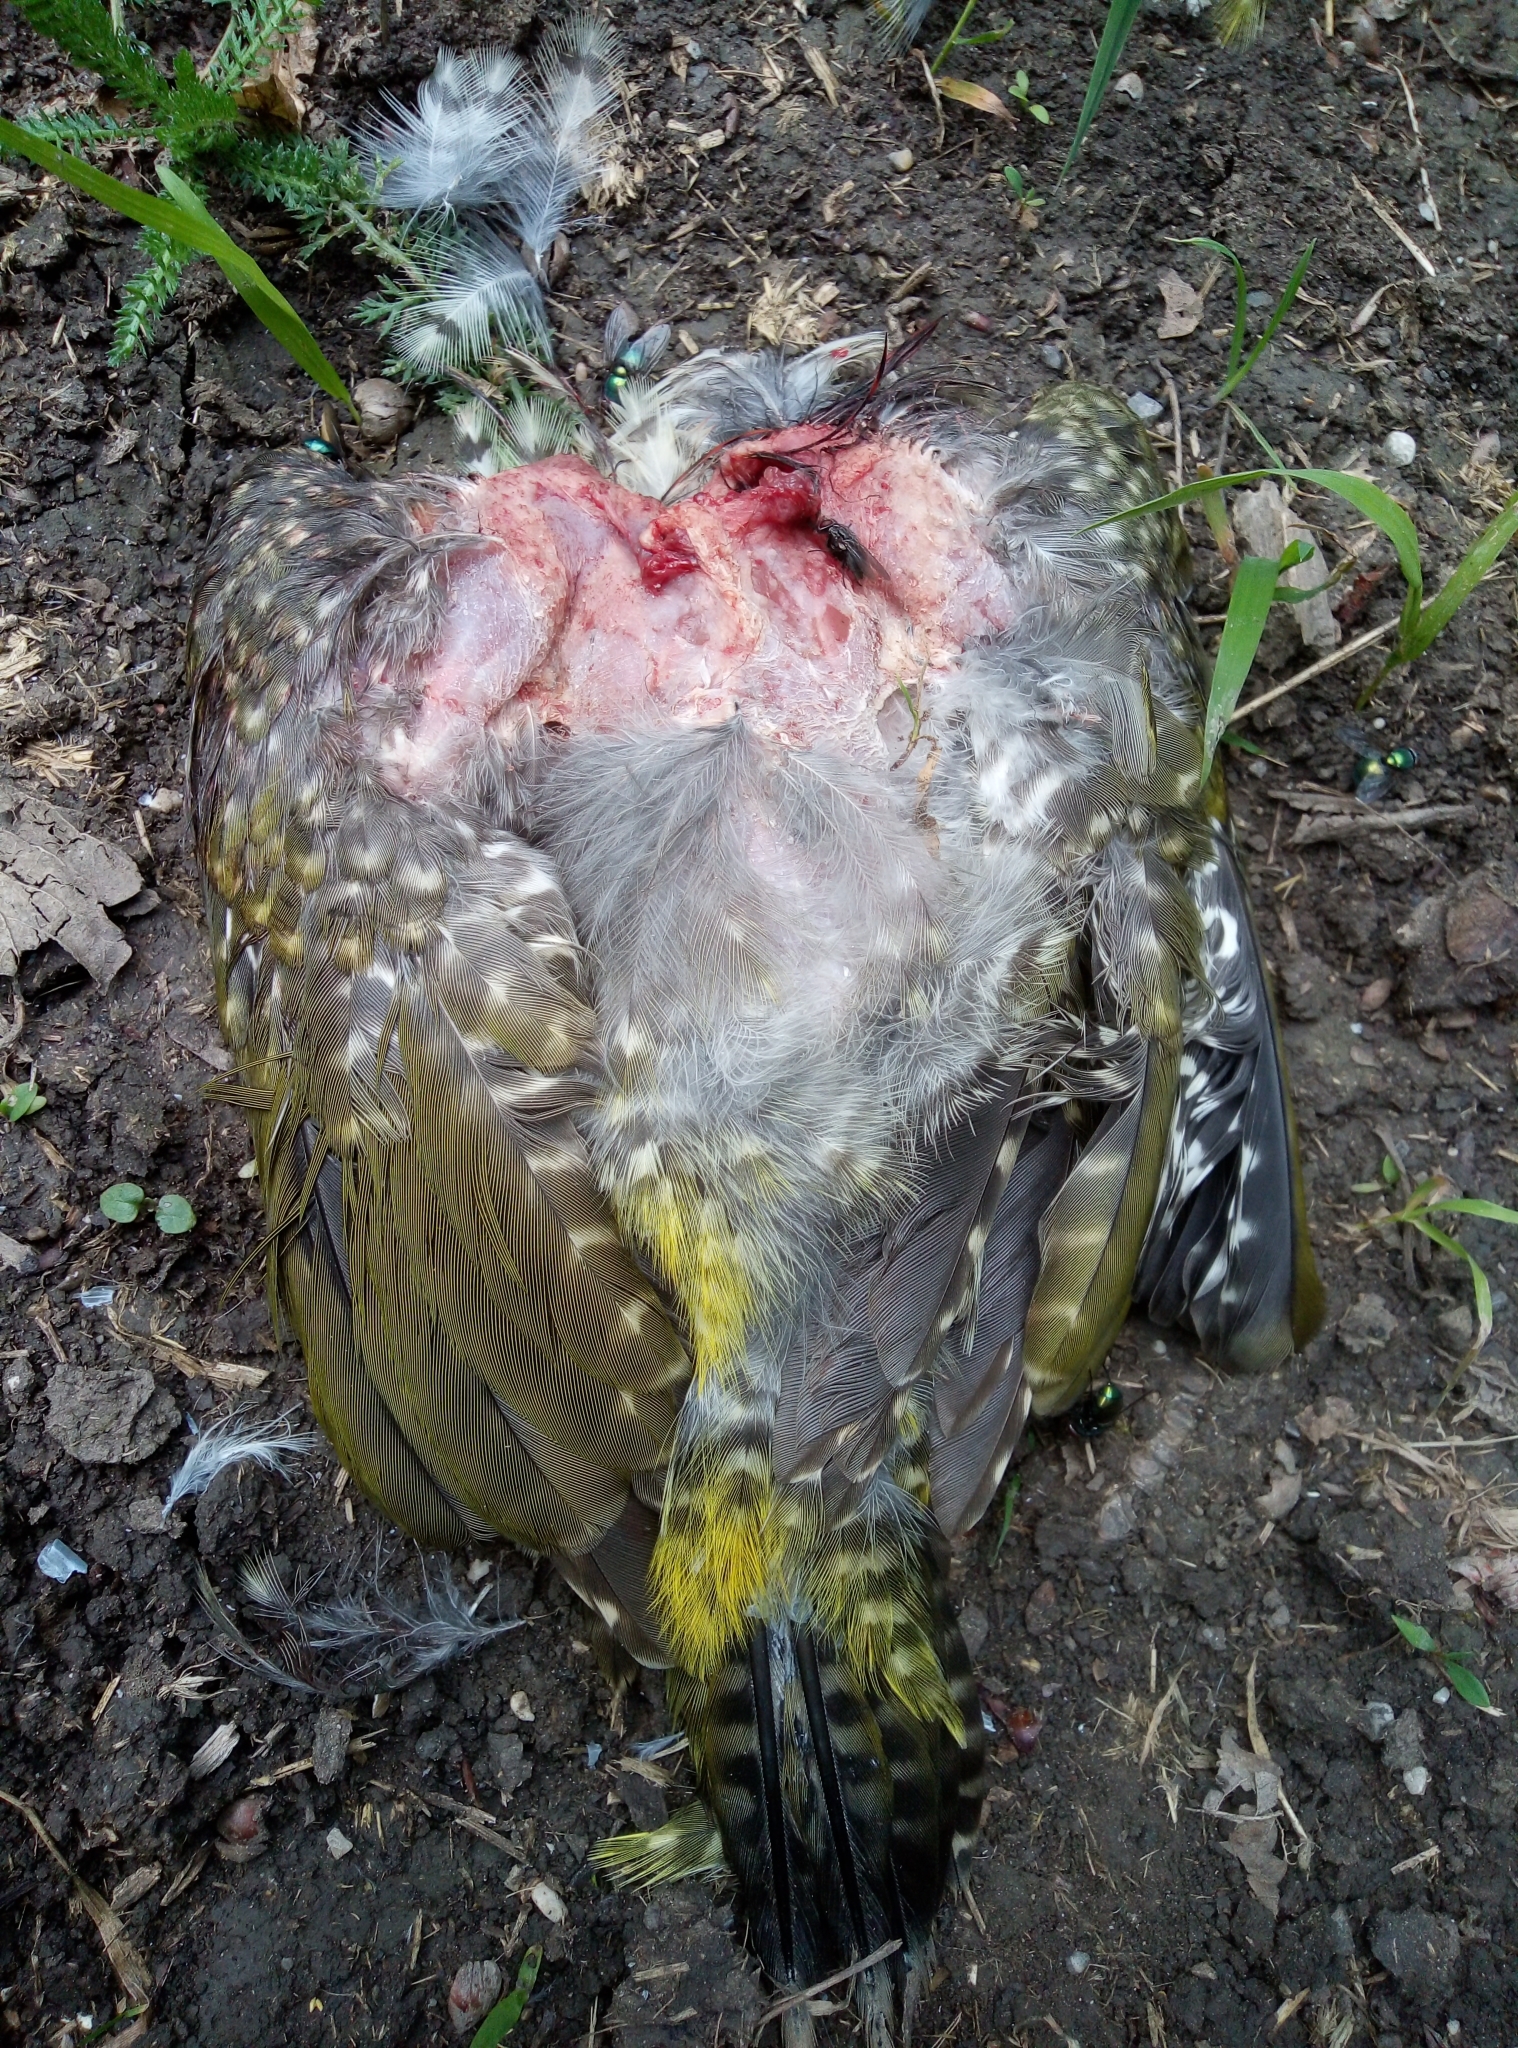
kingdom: Animalia
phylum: Chordata
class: Aves
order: Piciformes
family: Picidae
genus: Picus
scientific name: Picus viridis
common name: European green woodpecker
